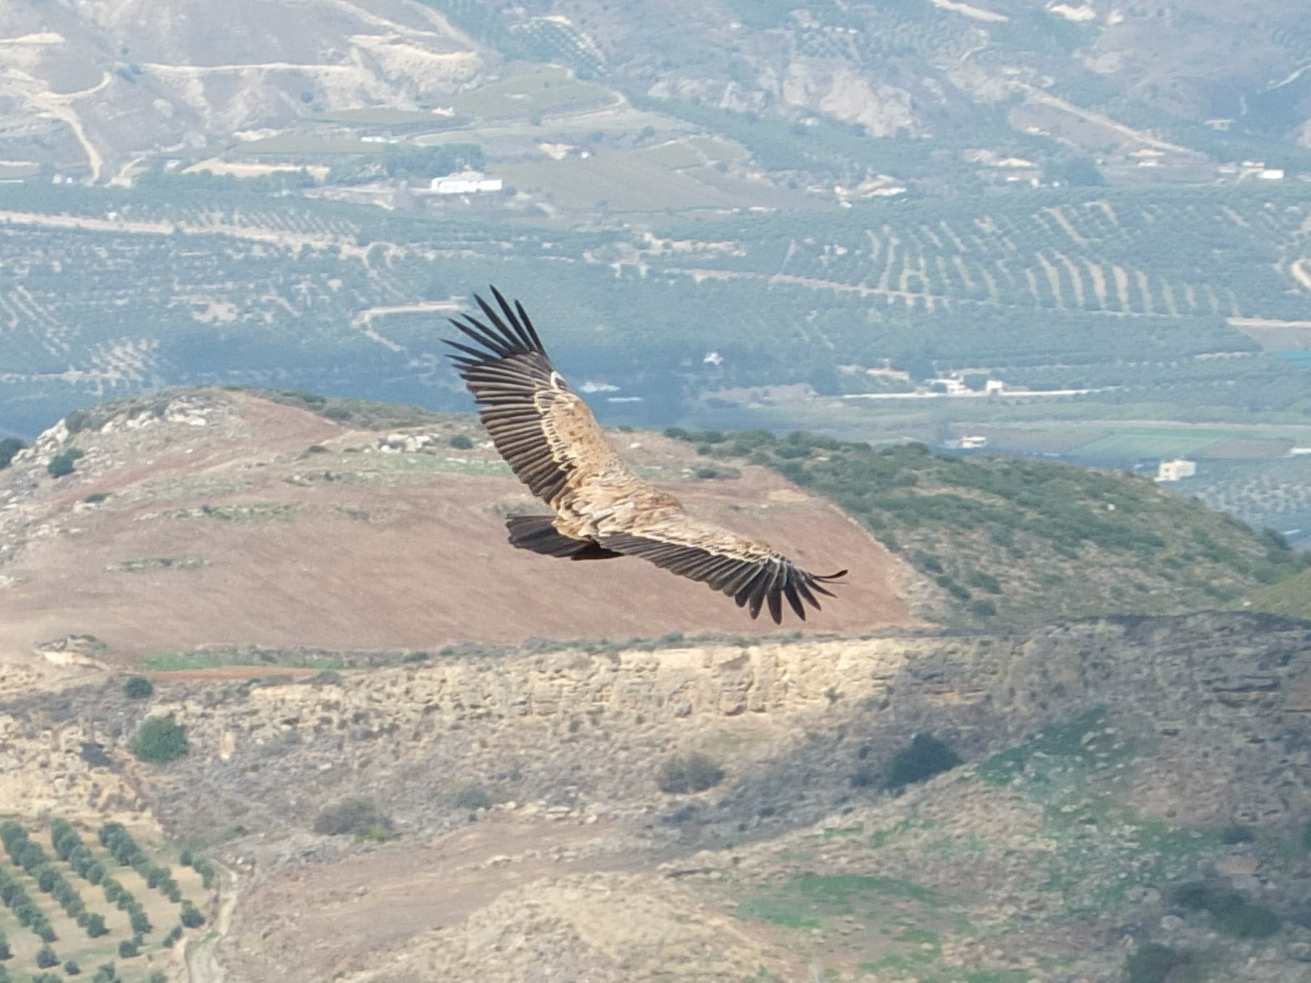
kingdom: Animalia
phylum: Chordata
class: Aves
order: Accipitriformes
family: Accipitridae
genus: Gyps
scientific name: Gyps fulvus
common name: Griffon vulture
